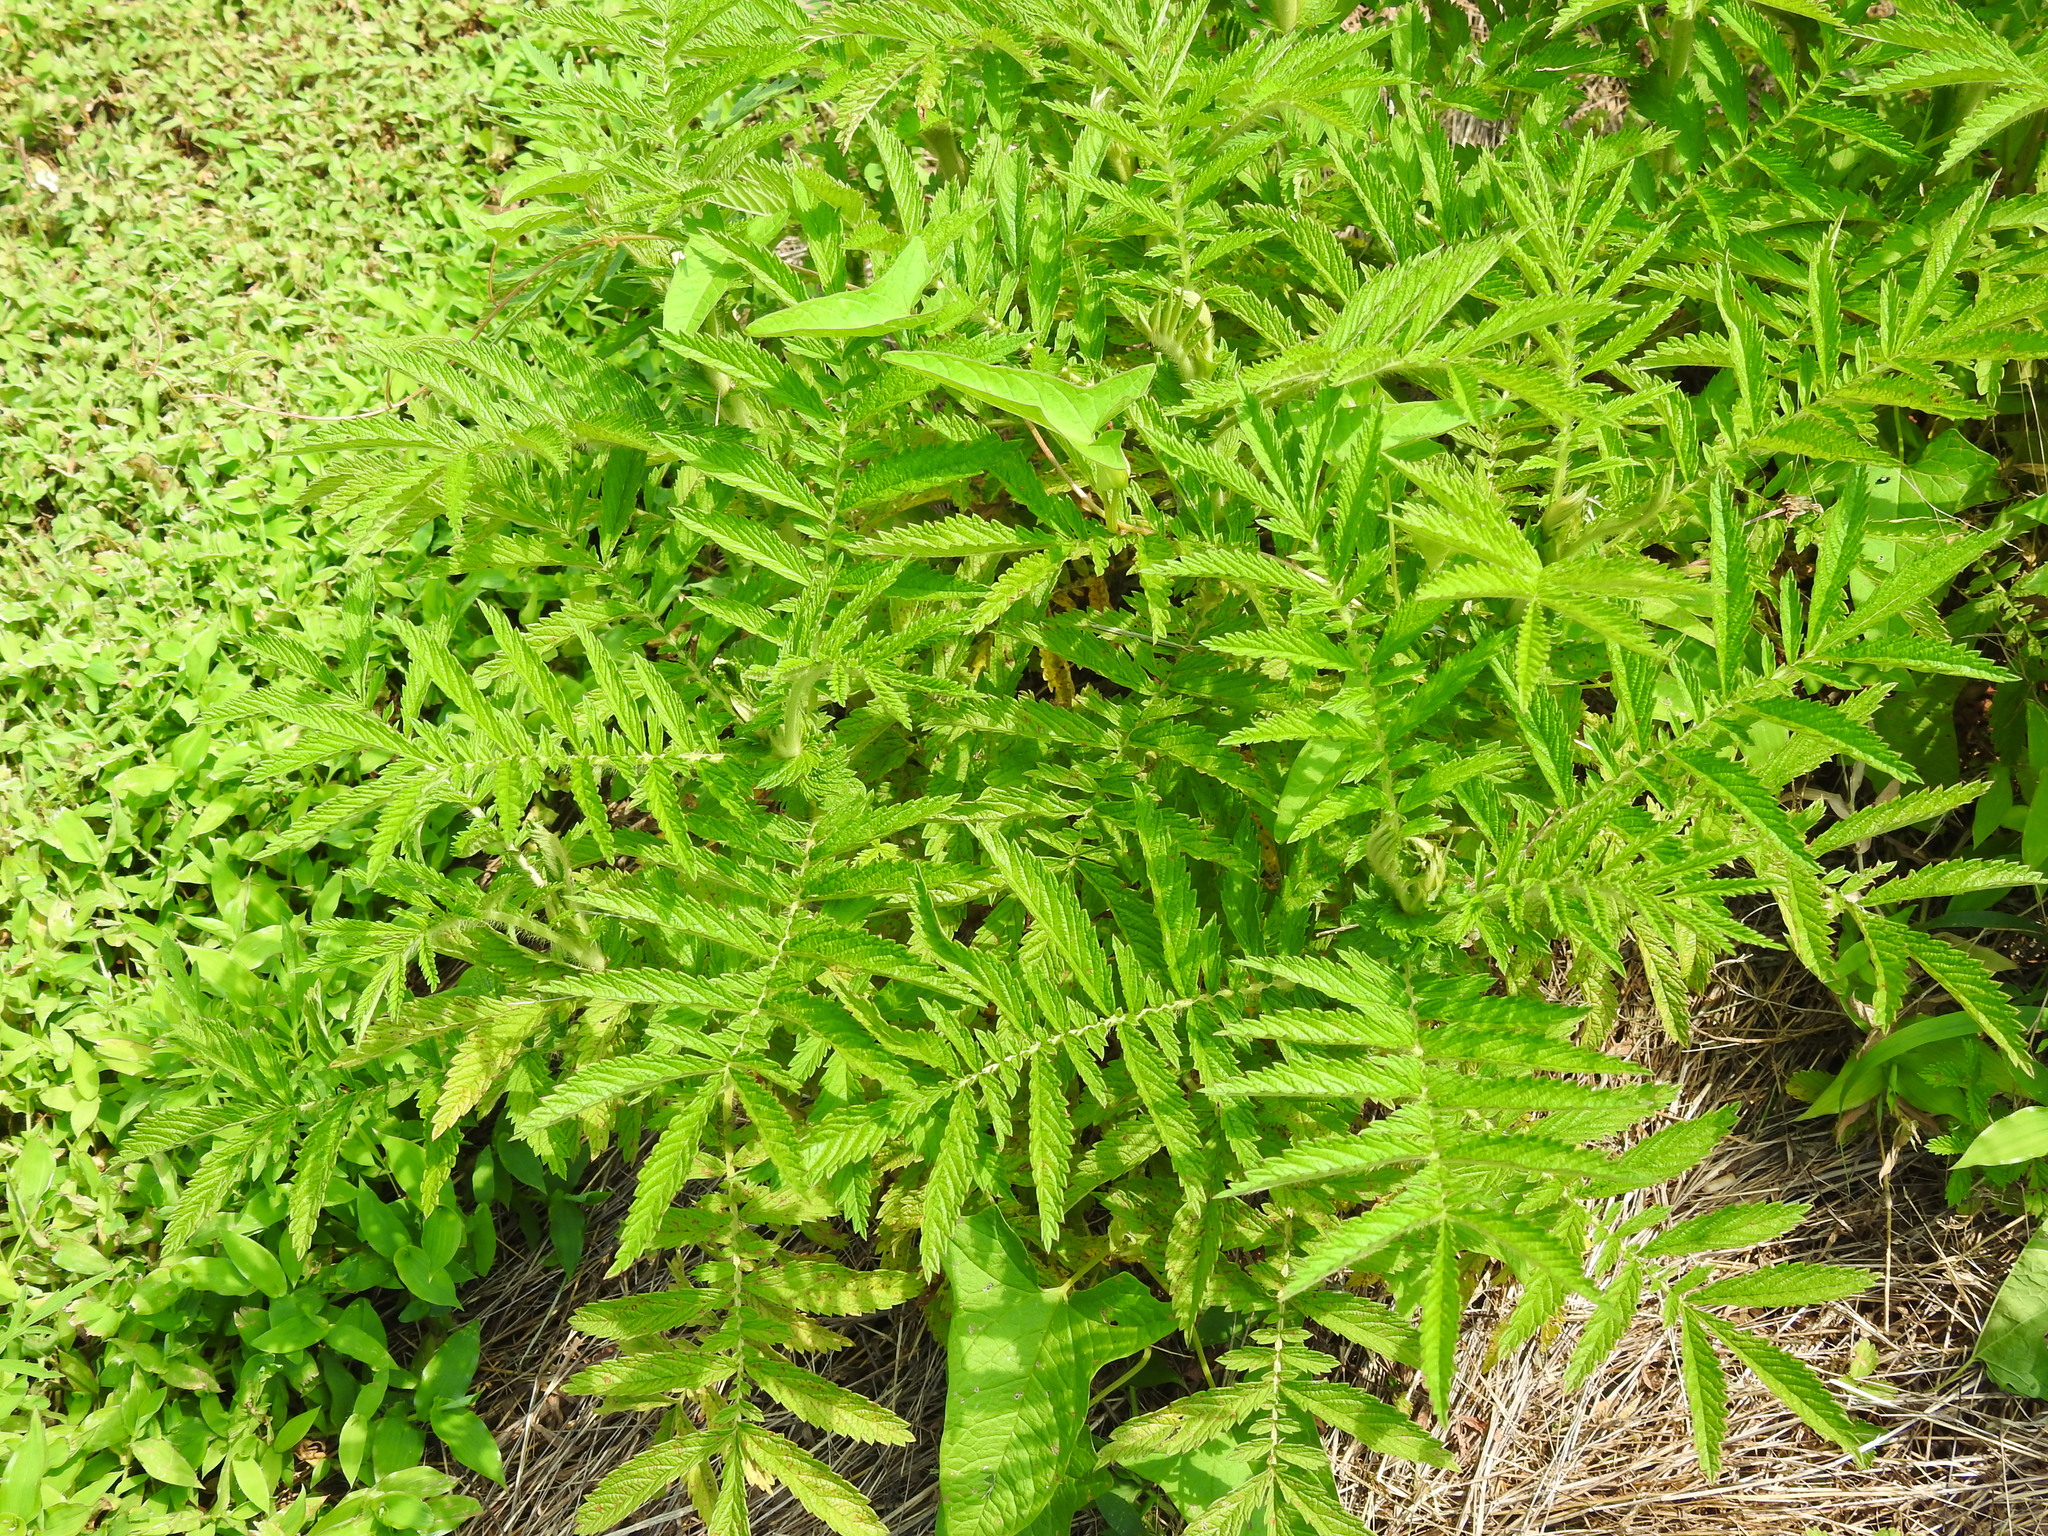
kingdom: Plantae
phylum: Tracheophyta
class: Magnoliopsida
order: Rosales
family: Rosaceae
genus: Agrimonia
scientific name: Agrimonia parviflora
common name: Harvest-lice
